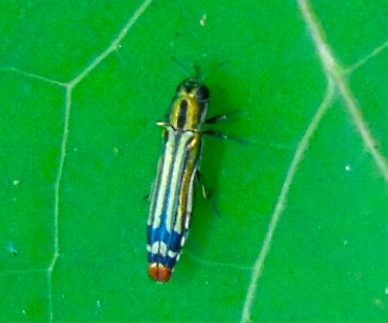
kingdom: Animalia
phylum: Arthropoda
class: Insecta
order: Coleoptera
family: Buprestidae
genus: Agrilus
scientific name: Agrilus catherinae
